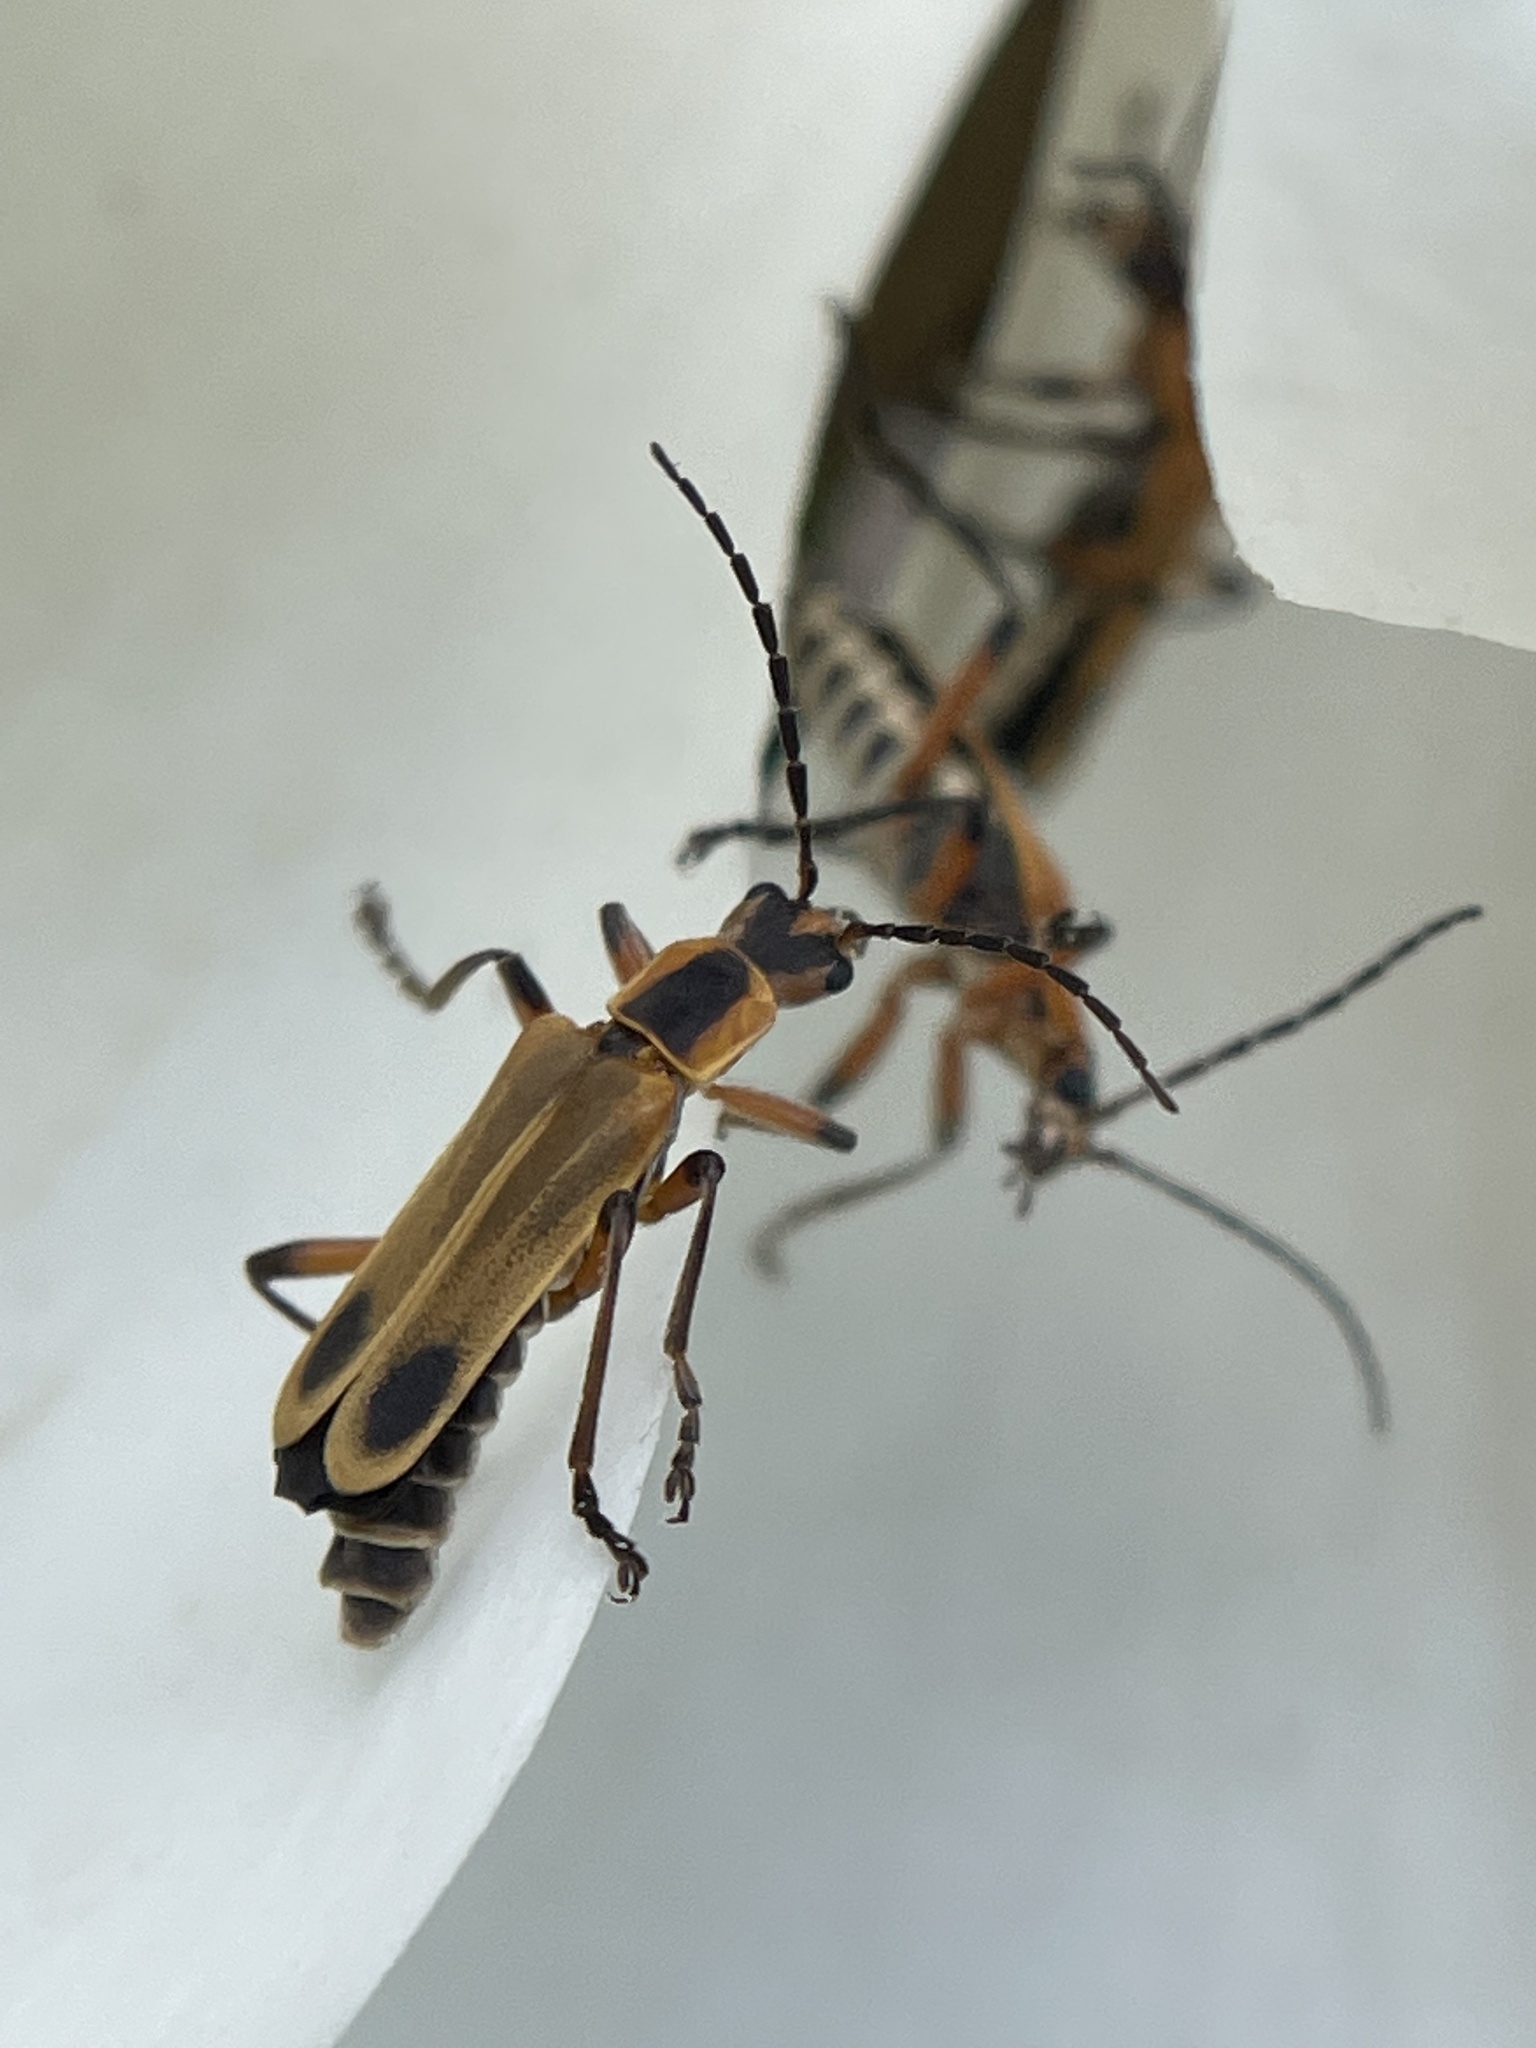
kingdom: Animalia
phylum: Arthropoda
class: Insecta
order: Coleoptera
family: Cantharidae
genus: Chauliognathus
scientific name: Chauliognathus marginatus
